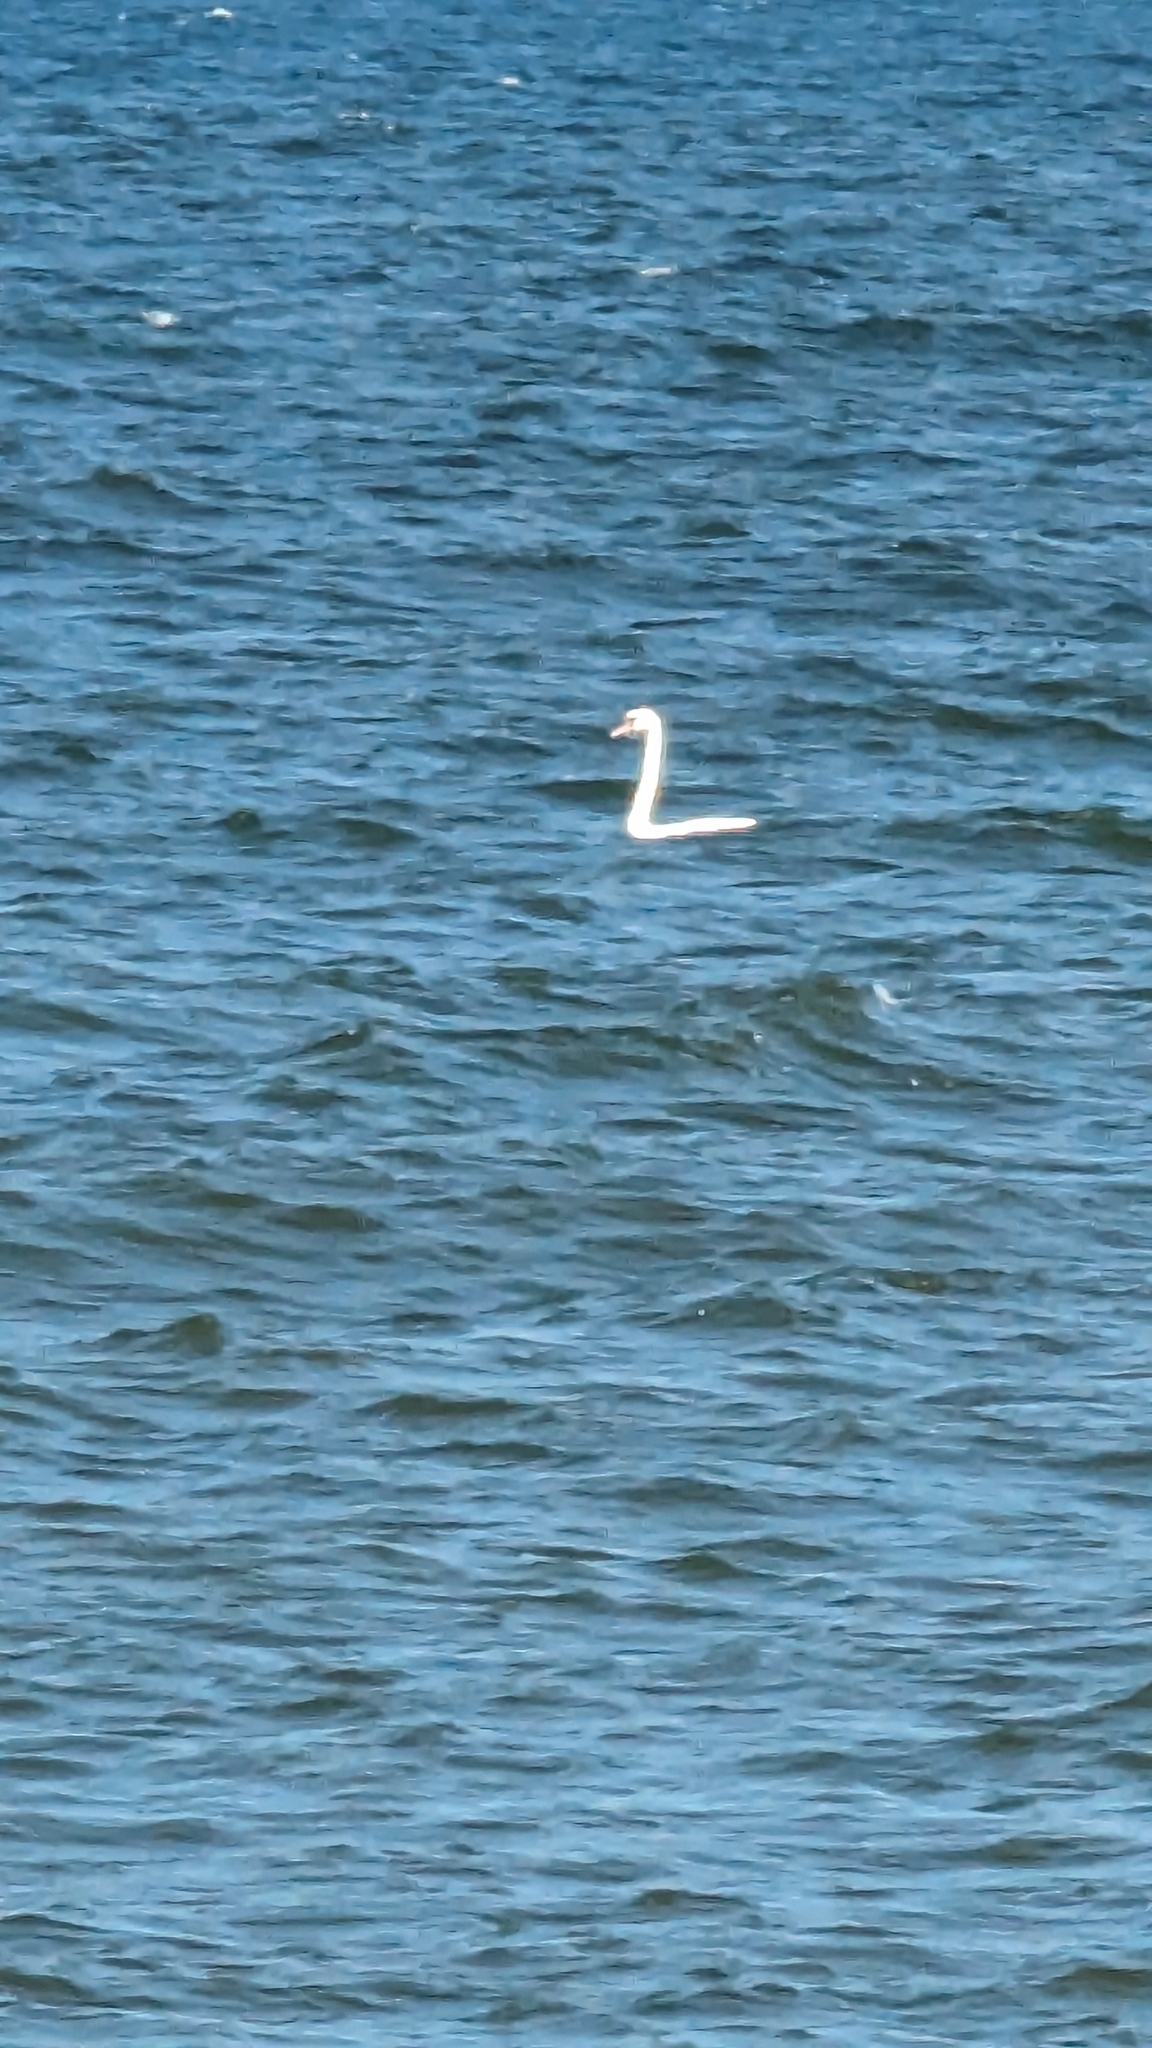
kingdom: Animalia
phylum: Chordata
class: Aves
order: Anseriformes
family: Anatidae
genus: Cygnus
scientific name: Cygnus olor
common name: Mute swan
